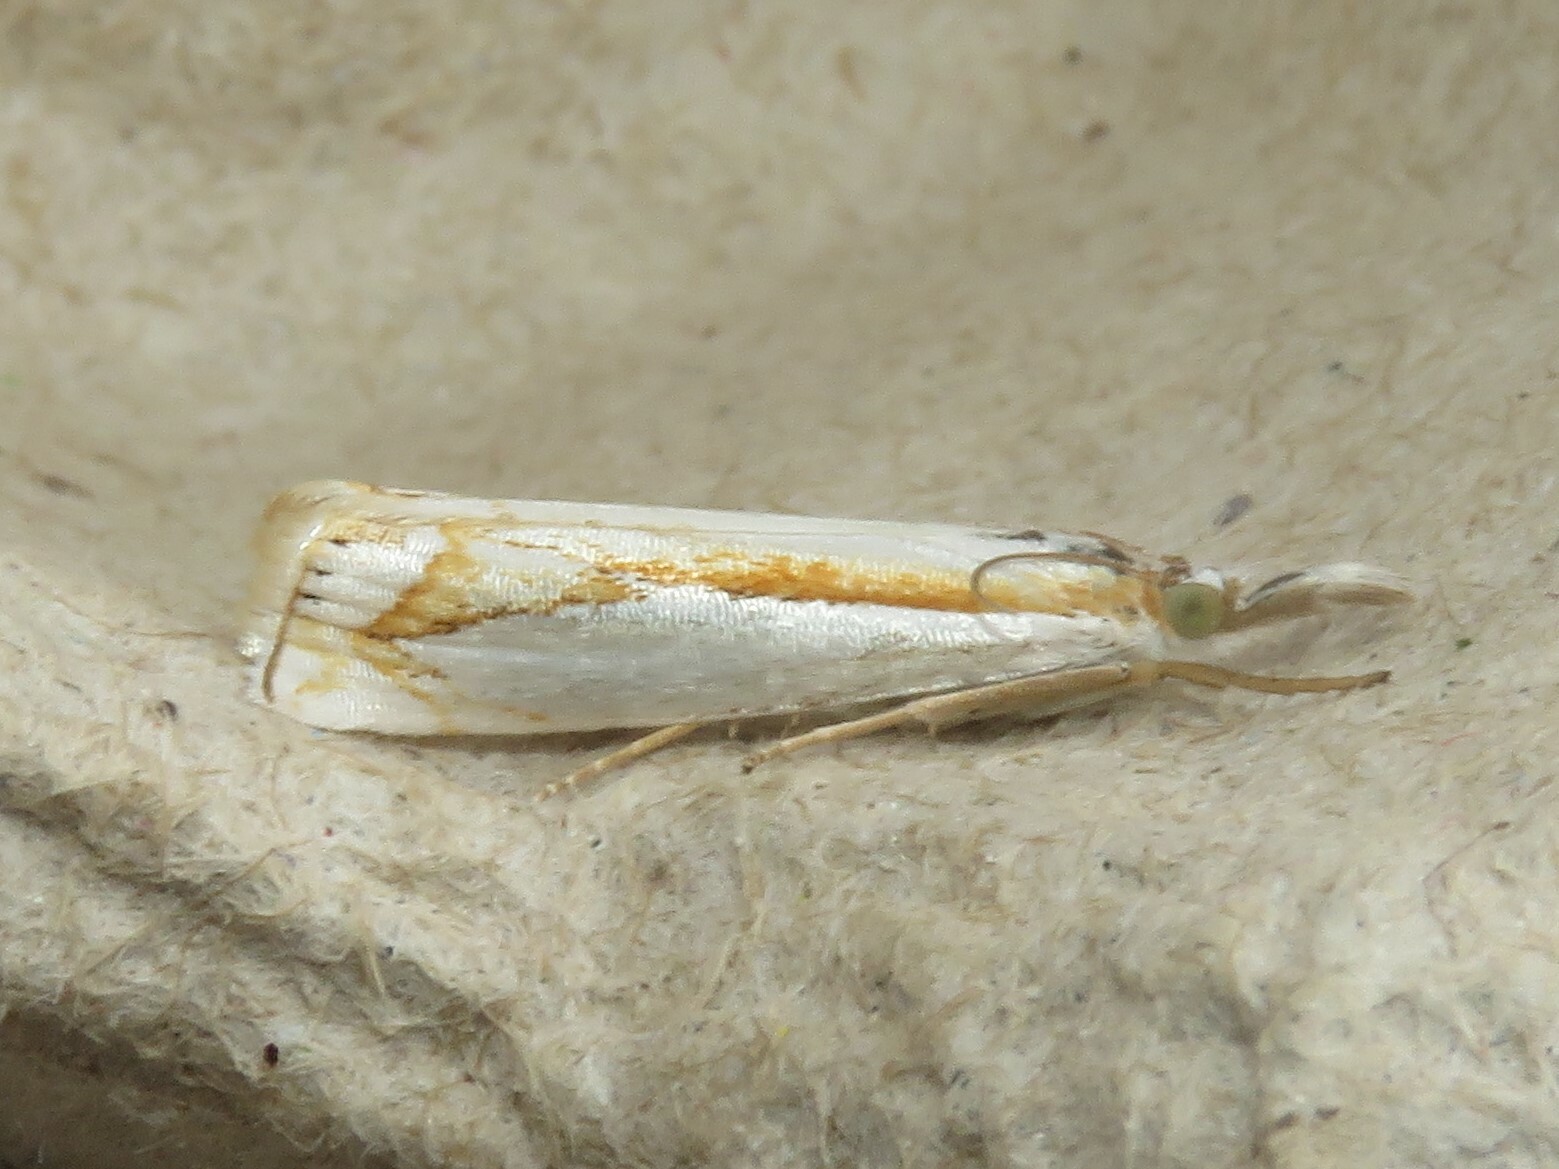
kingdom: Animalia
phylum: Arthropoda
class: Insecta
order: Lepidoptera
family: Crambidae
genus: Crambus
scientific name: Crambus girardellus
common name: Girard's grass-veneer
